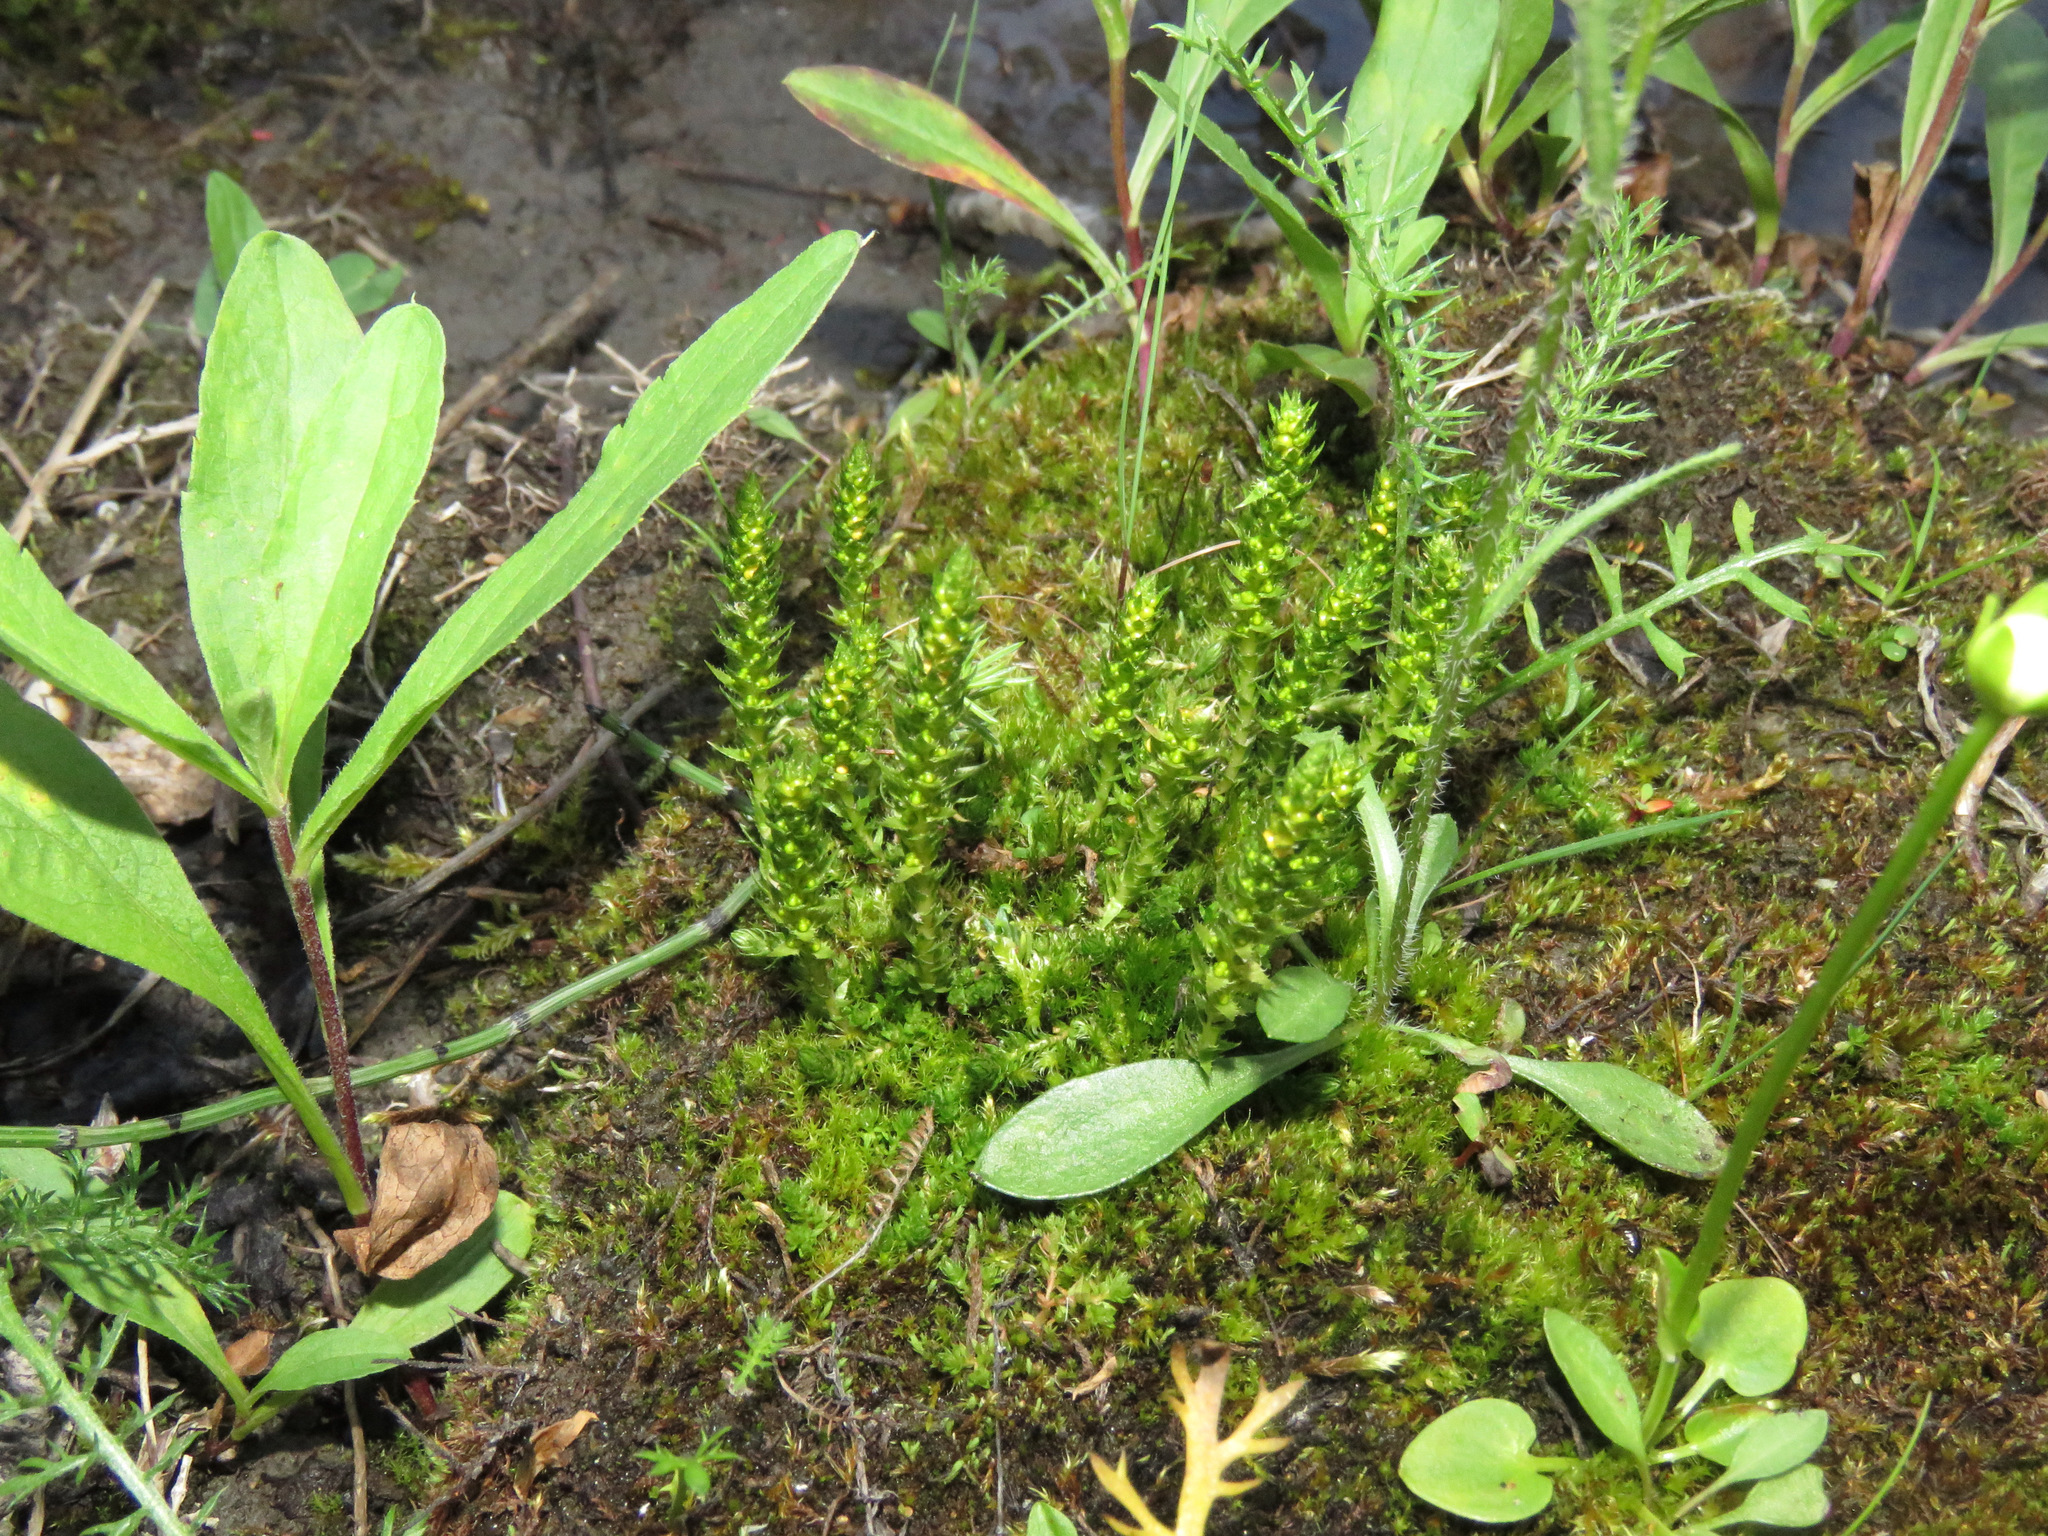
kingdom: Plantae
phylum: Tracheophyta
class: Lycopodiopsida
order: Selaginellales
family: Selaginellaceae
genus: Selaginella
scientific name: Selaginella selaginoides
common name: Prickly mountain-moss
